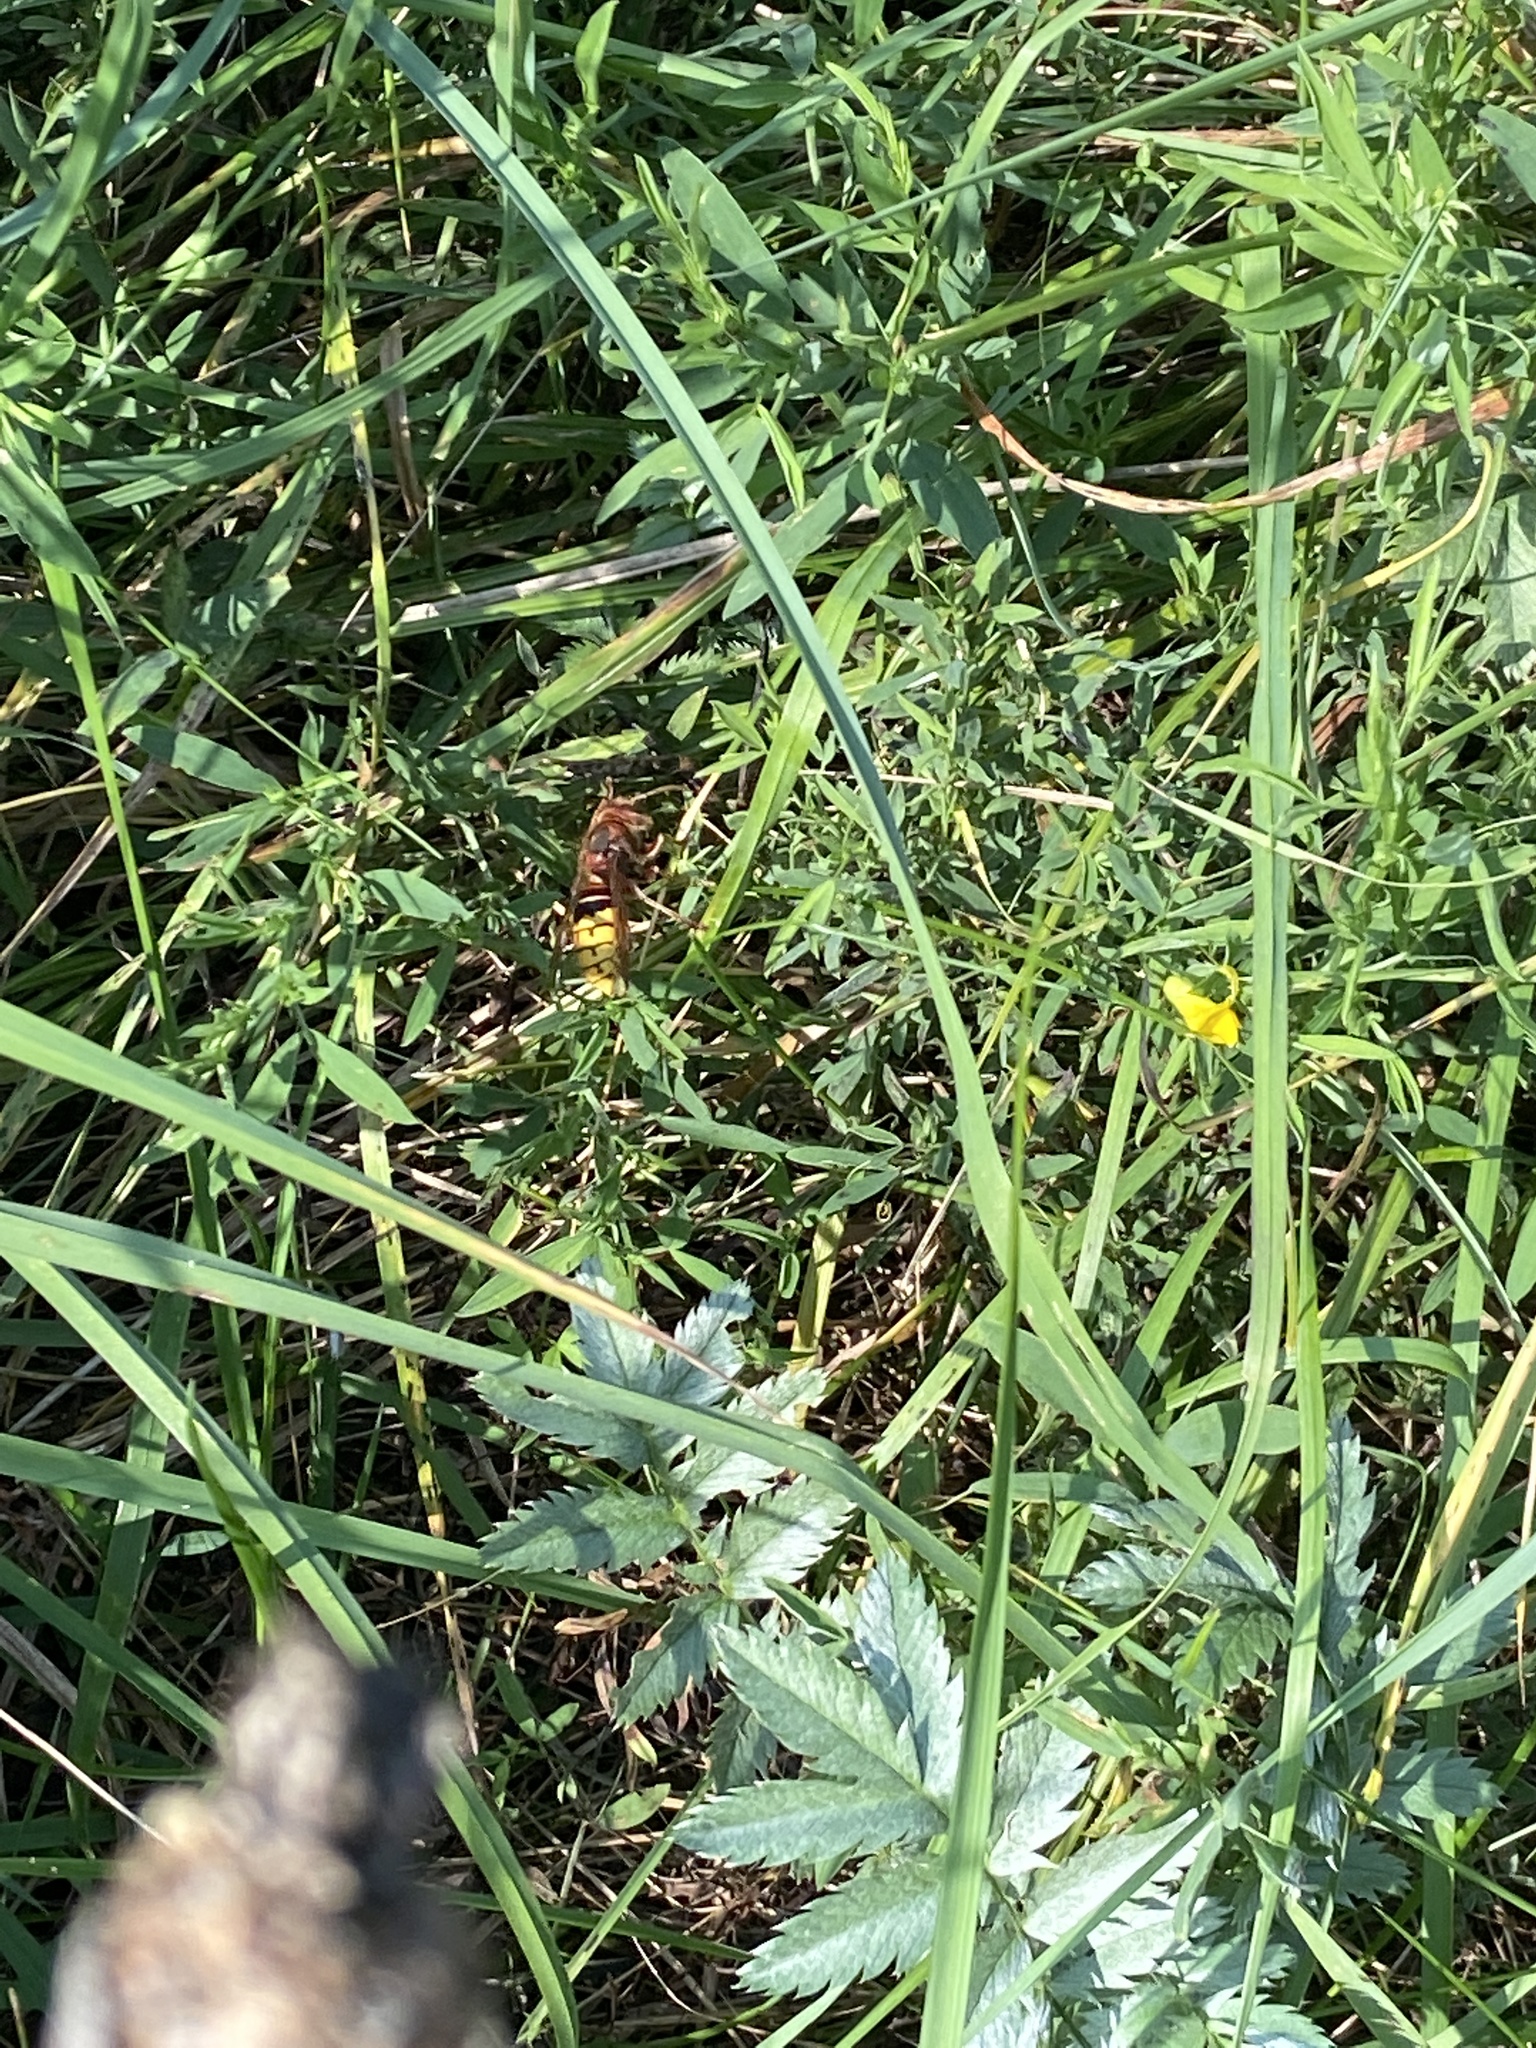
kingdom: Animalia
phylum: Arthropoda
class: Insecta
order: Hymenoptera
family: Vespidae
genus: Vespa
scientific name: Vespa crabro
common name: Hornet
